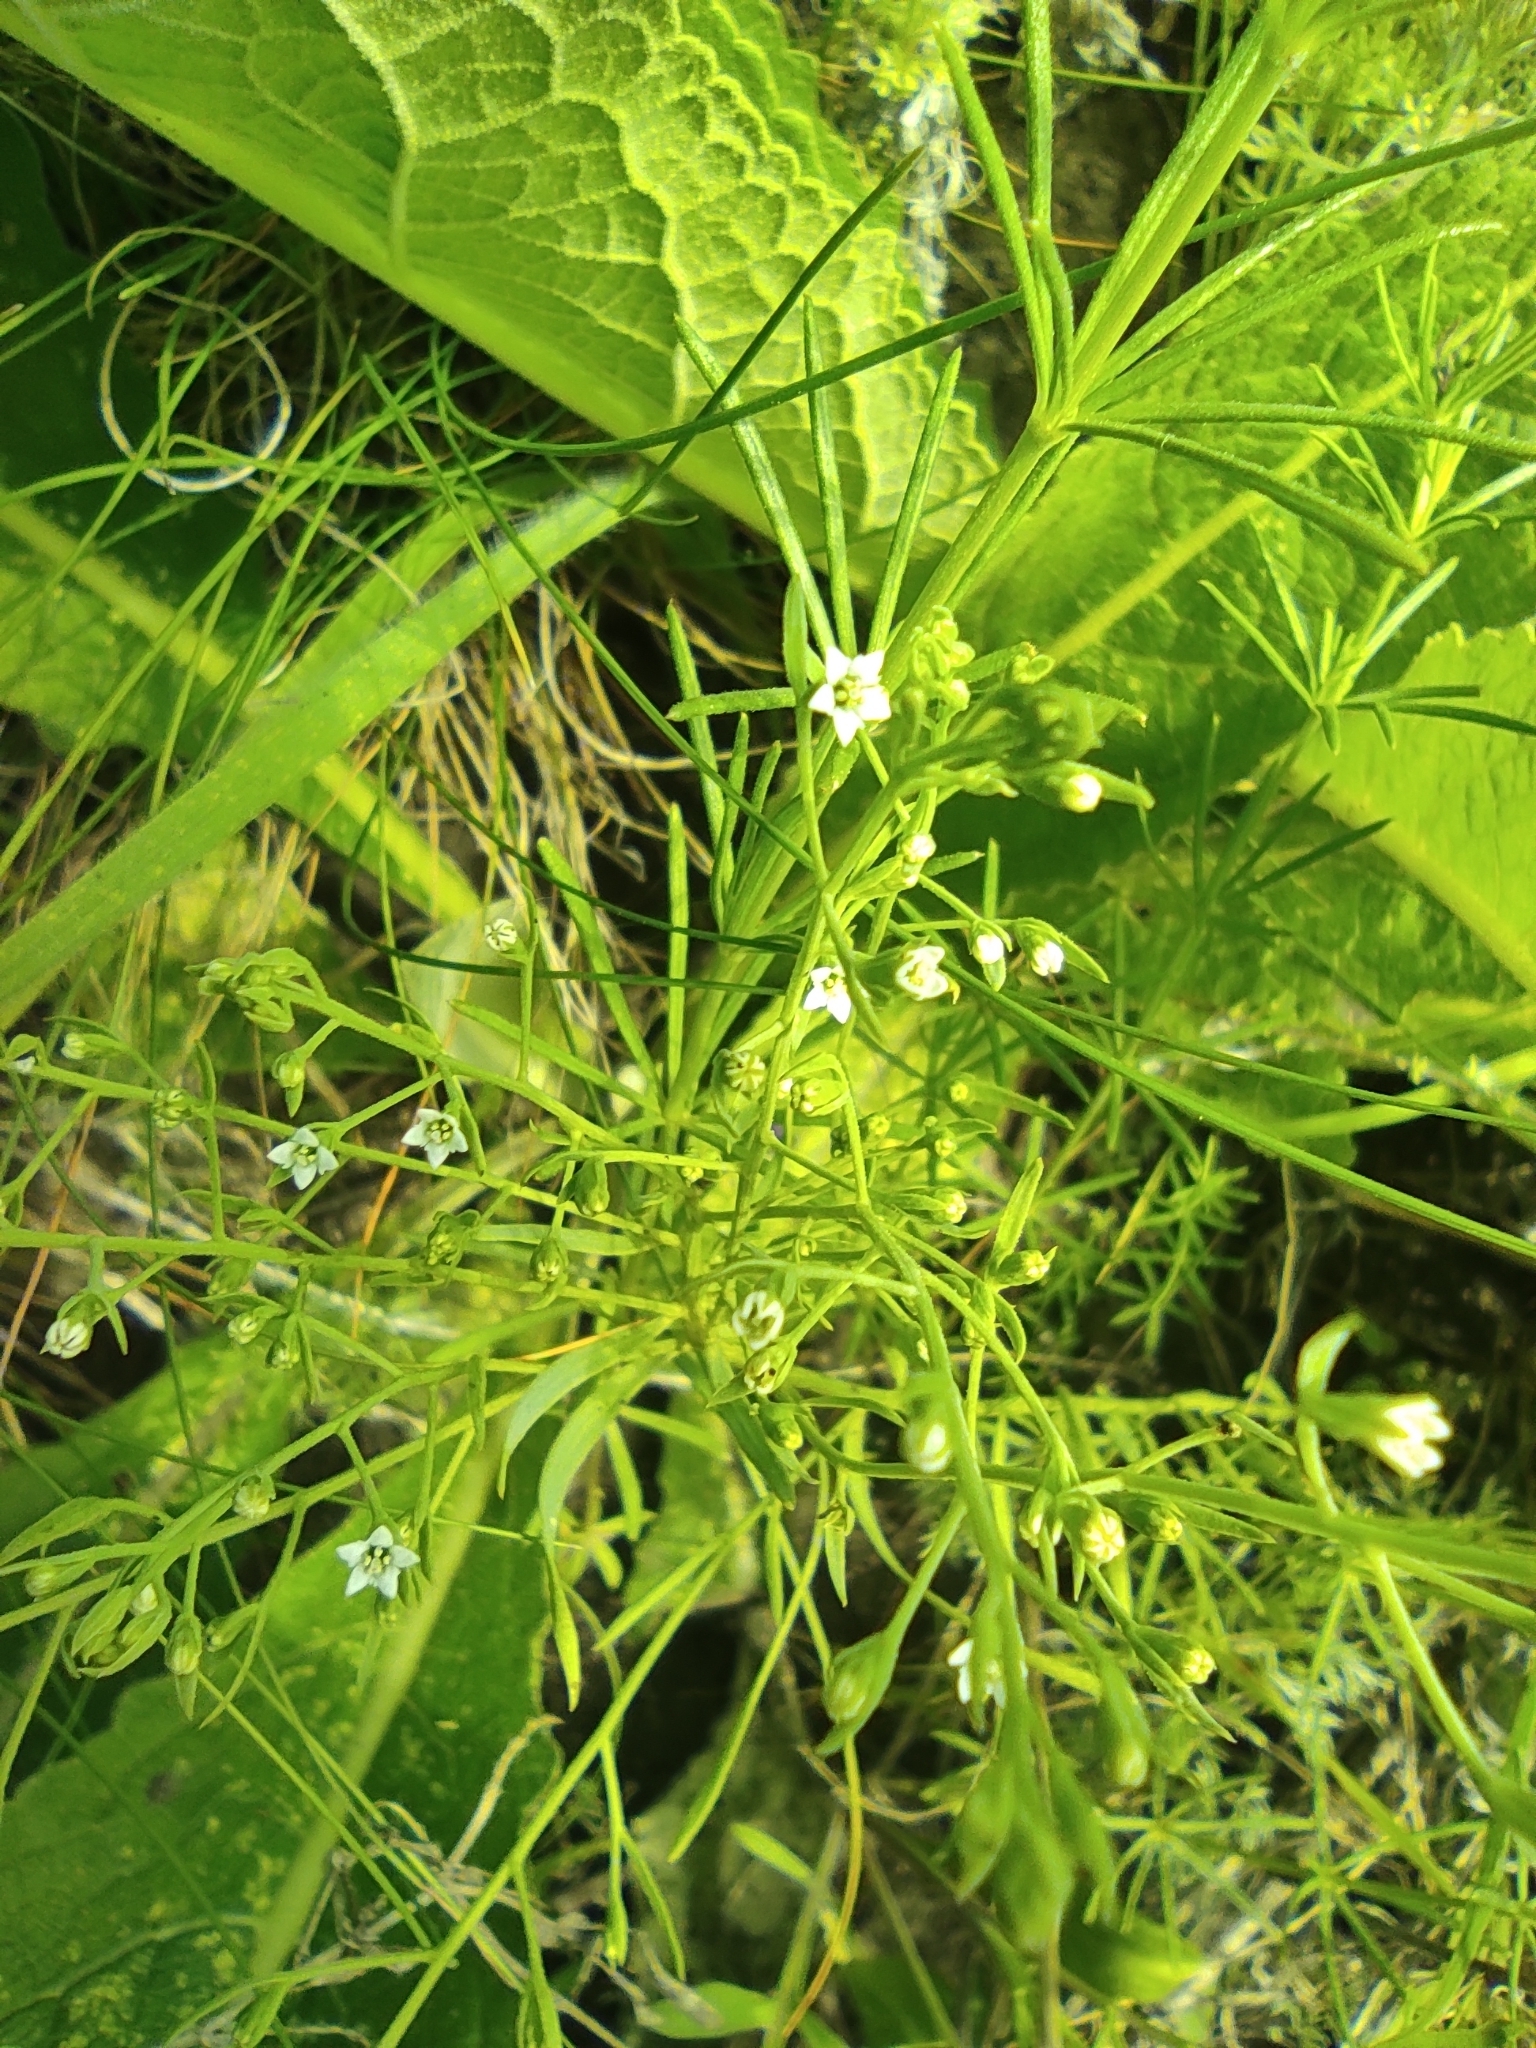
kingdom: Plantae
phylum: Tracheophyta
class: Magnoliopsida
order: Santalales
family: Thesiaceae
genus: Thesium
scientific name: Thesium ramosum
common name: Field thesium
